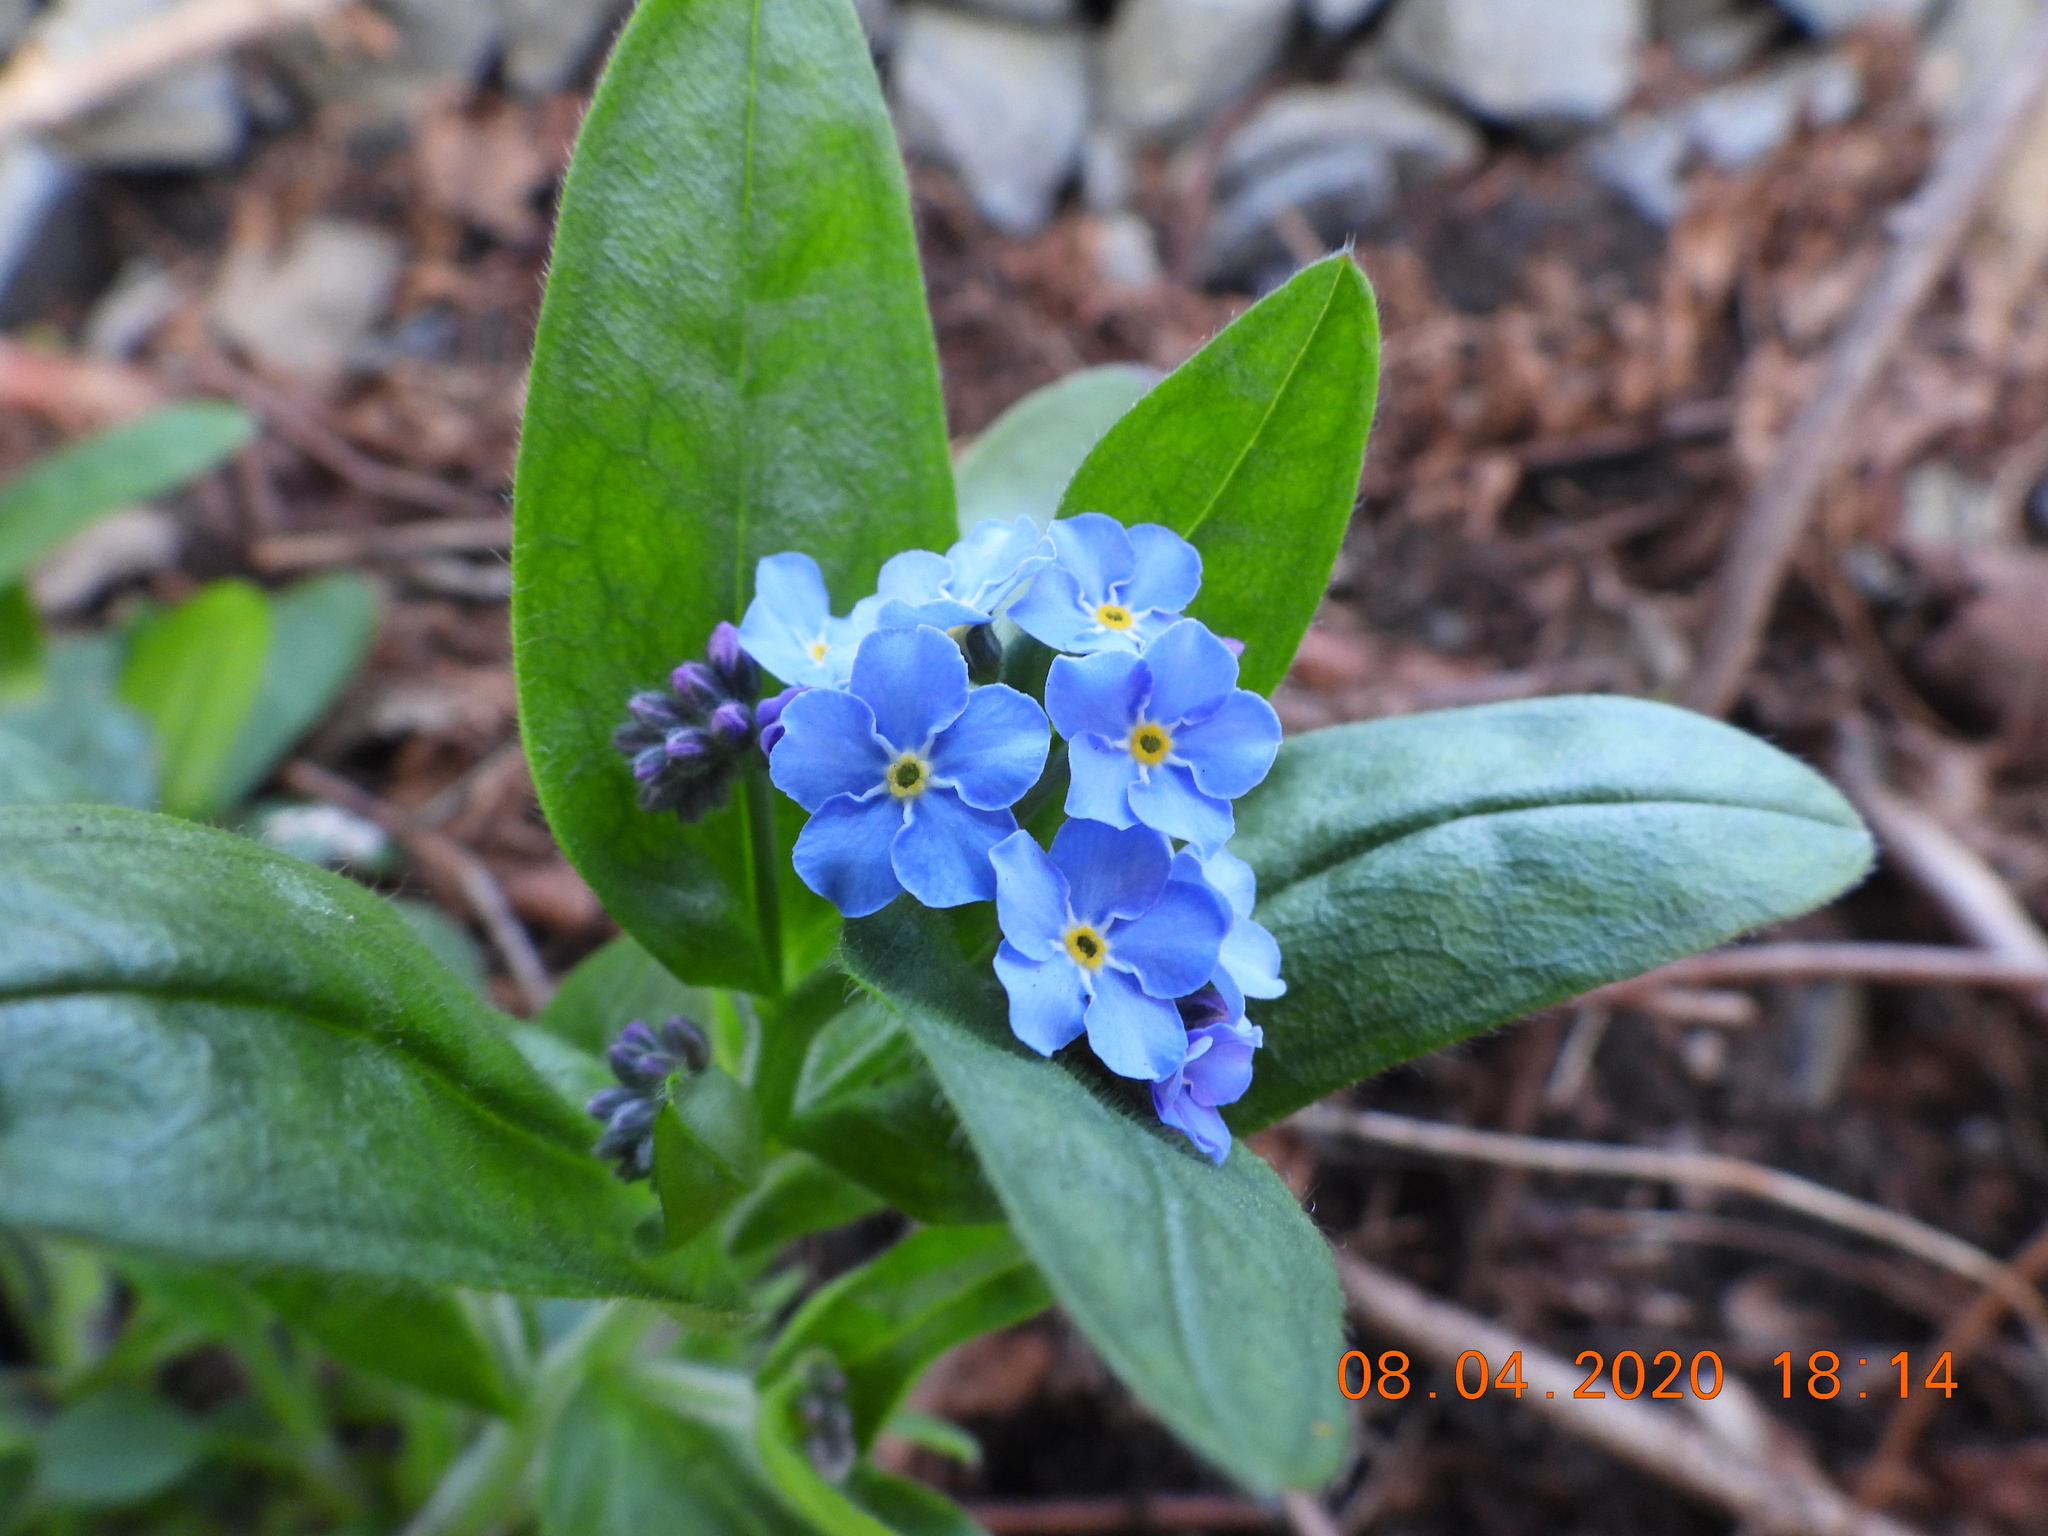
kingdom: Plantae
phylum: Tracheophyta
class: Magnoliopsida
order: Boraginales
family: Boraginaceae
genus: Myosotis
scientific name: Myosotis sylvatica
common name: Wood forget-me-not
